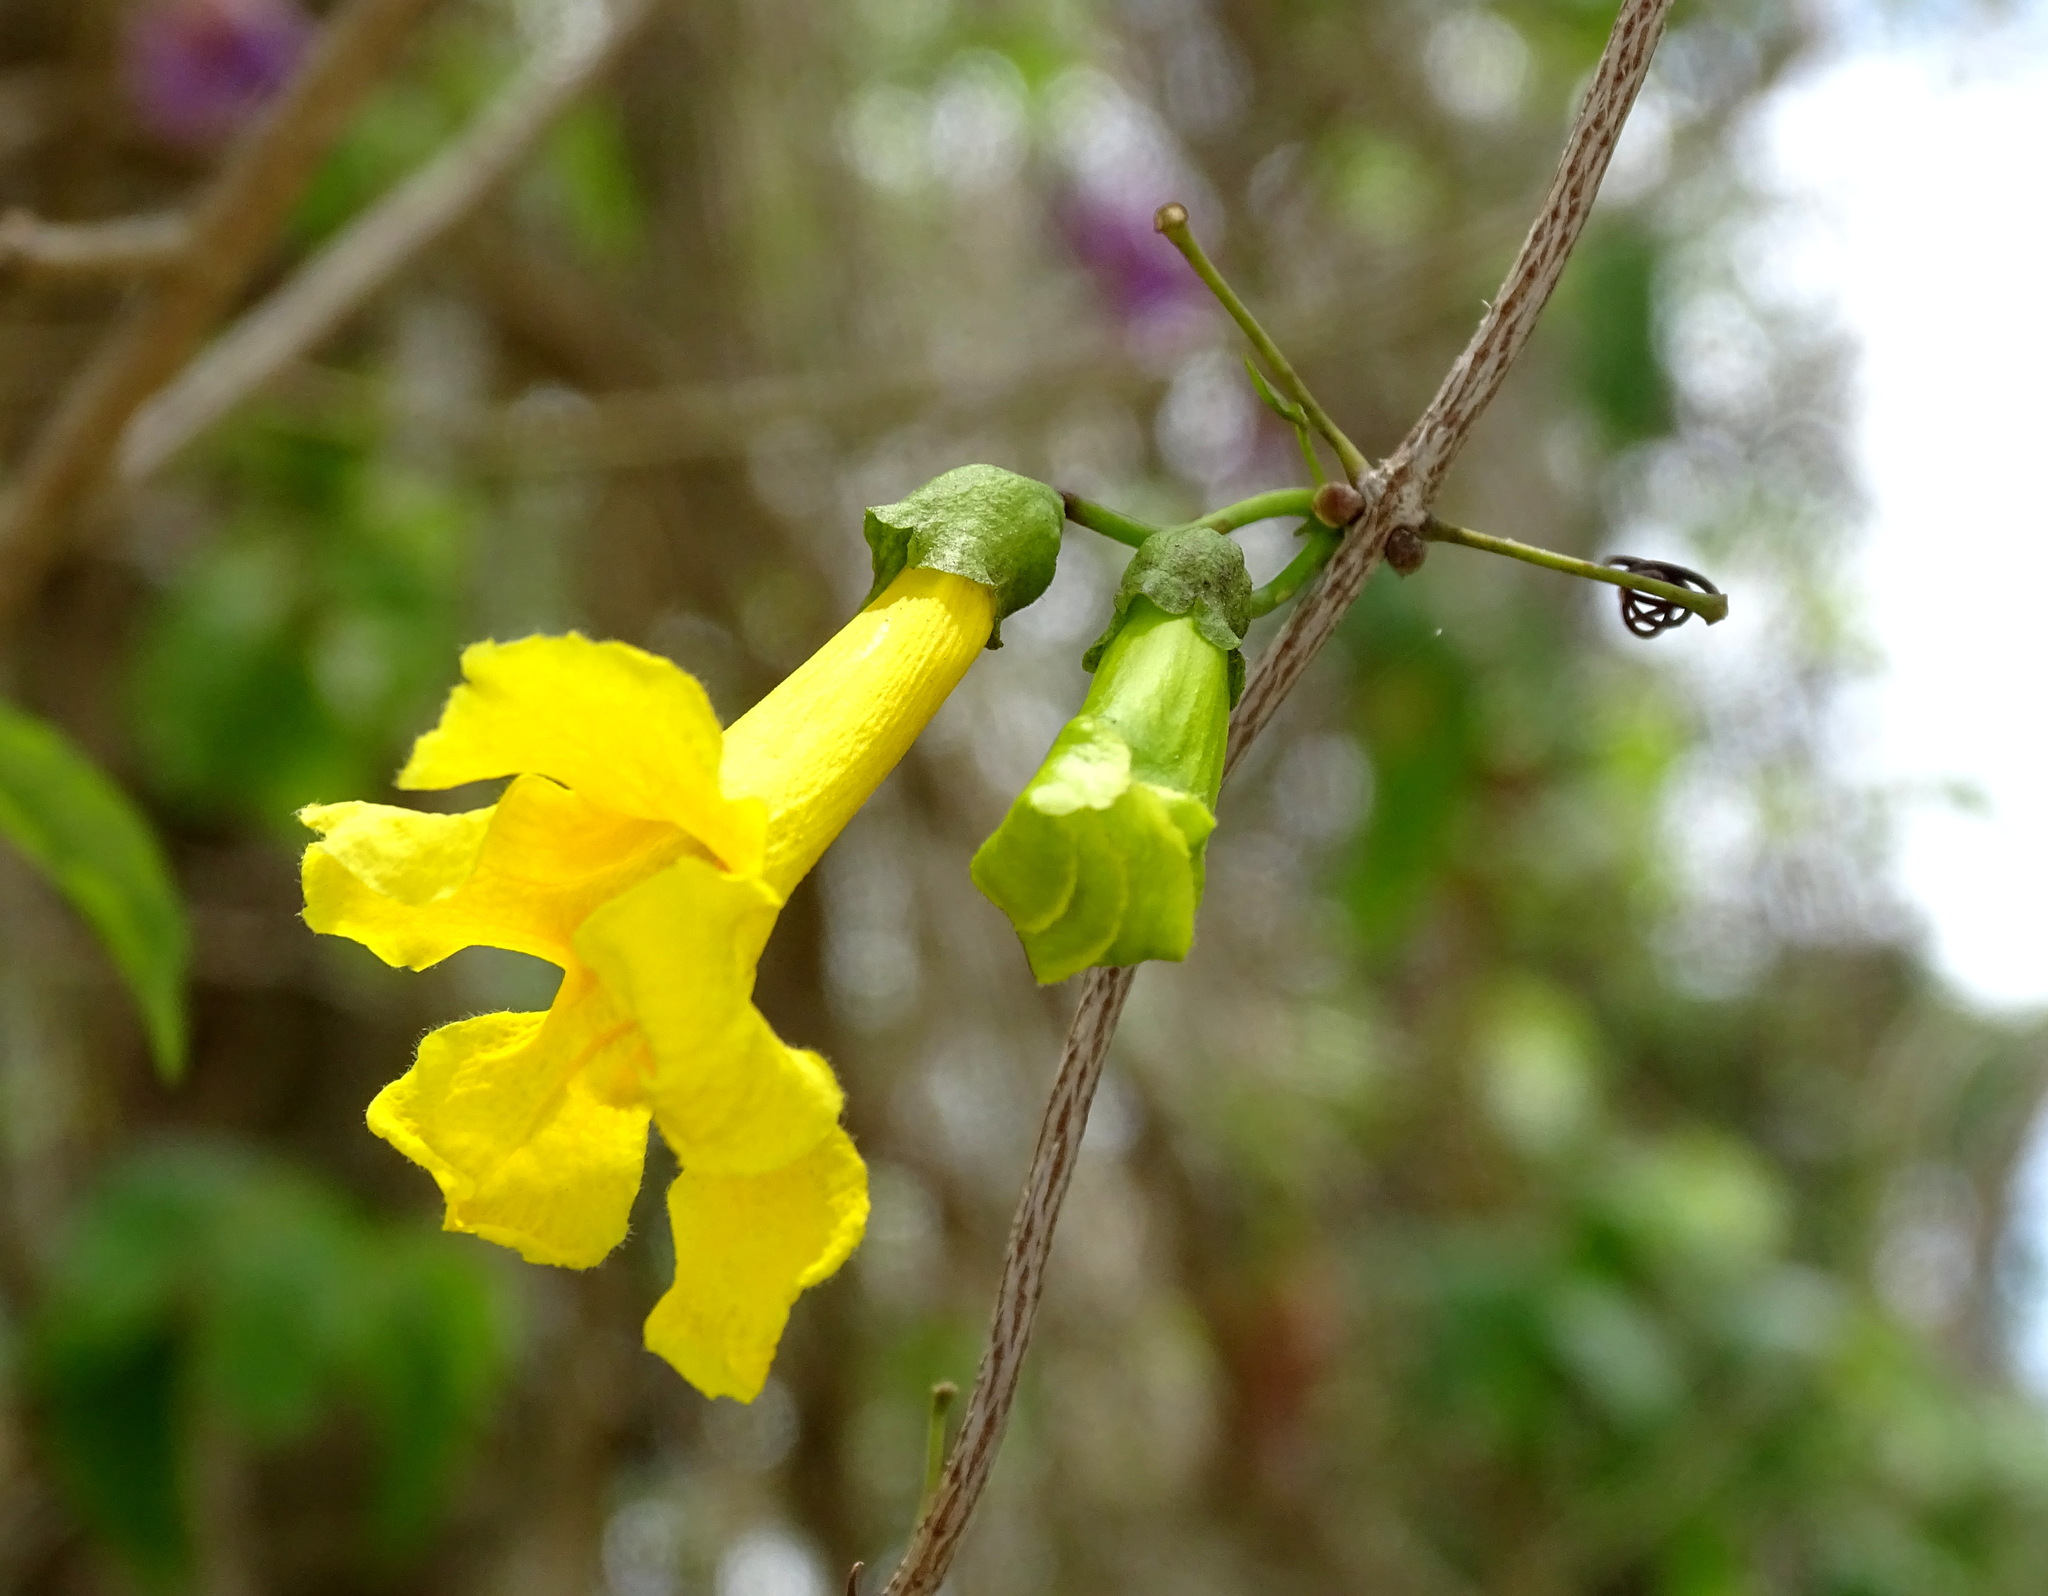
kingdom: Plantae
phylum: Tracheophyta
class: Magnoliopsida
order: Lamiales
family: Bignoniaceae
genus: Dolichandra
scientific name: Dolichandra unguis-cati
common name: Catclaw vine
